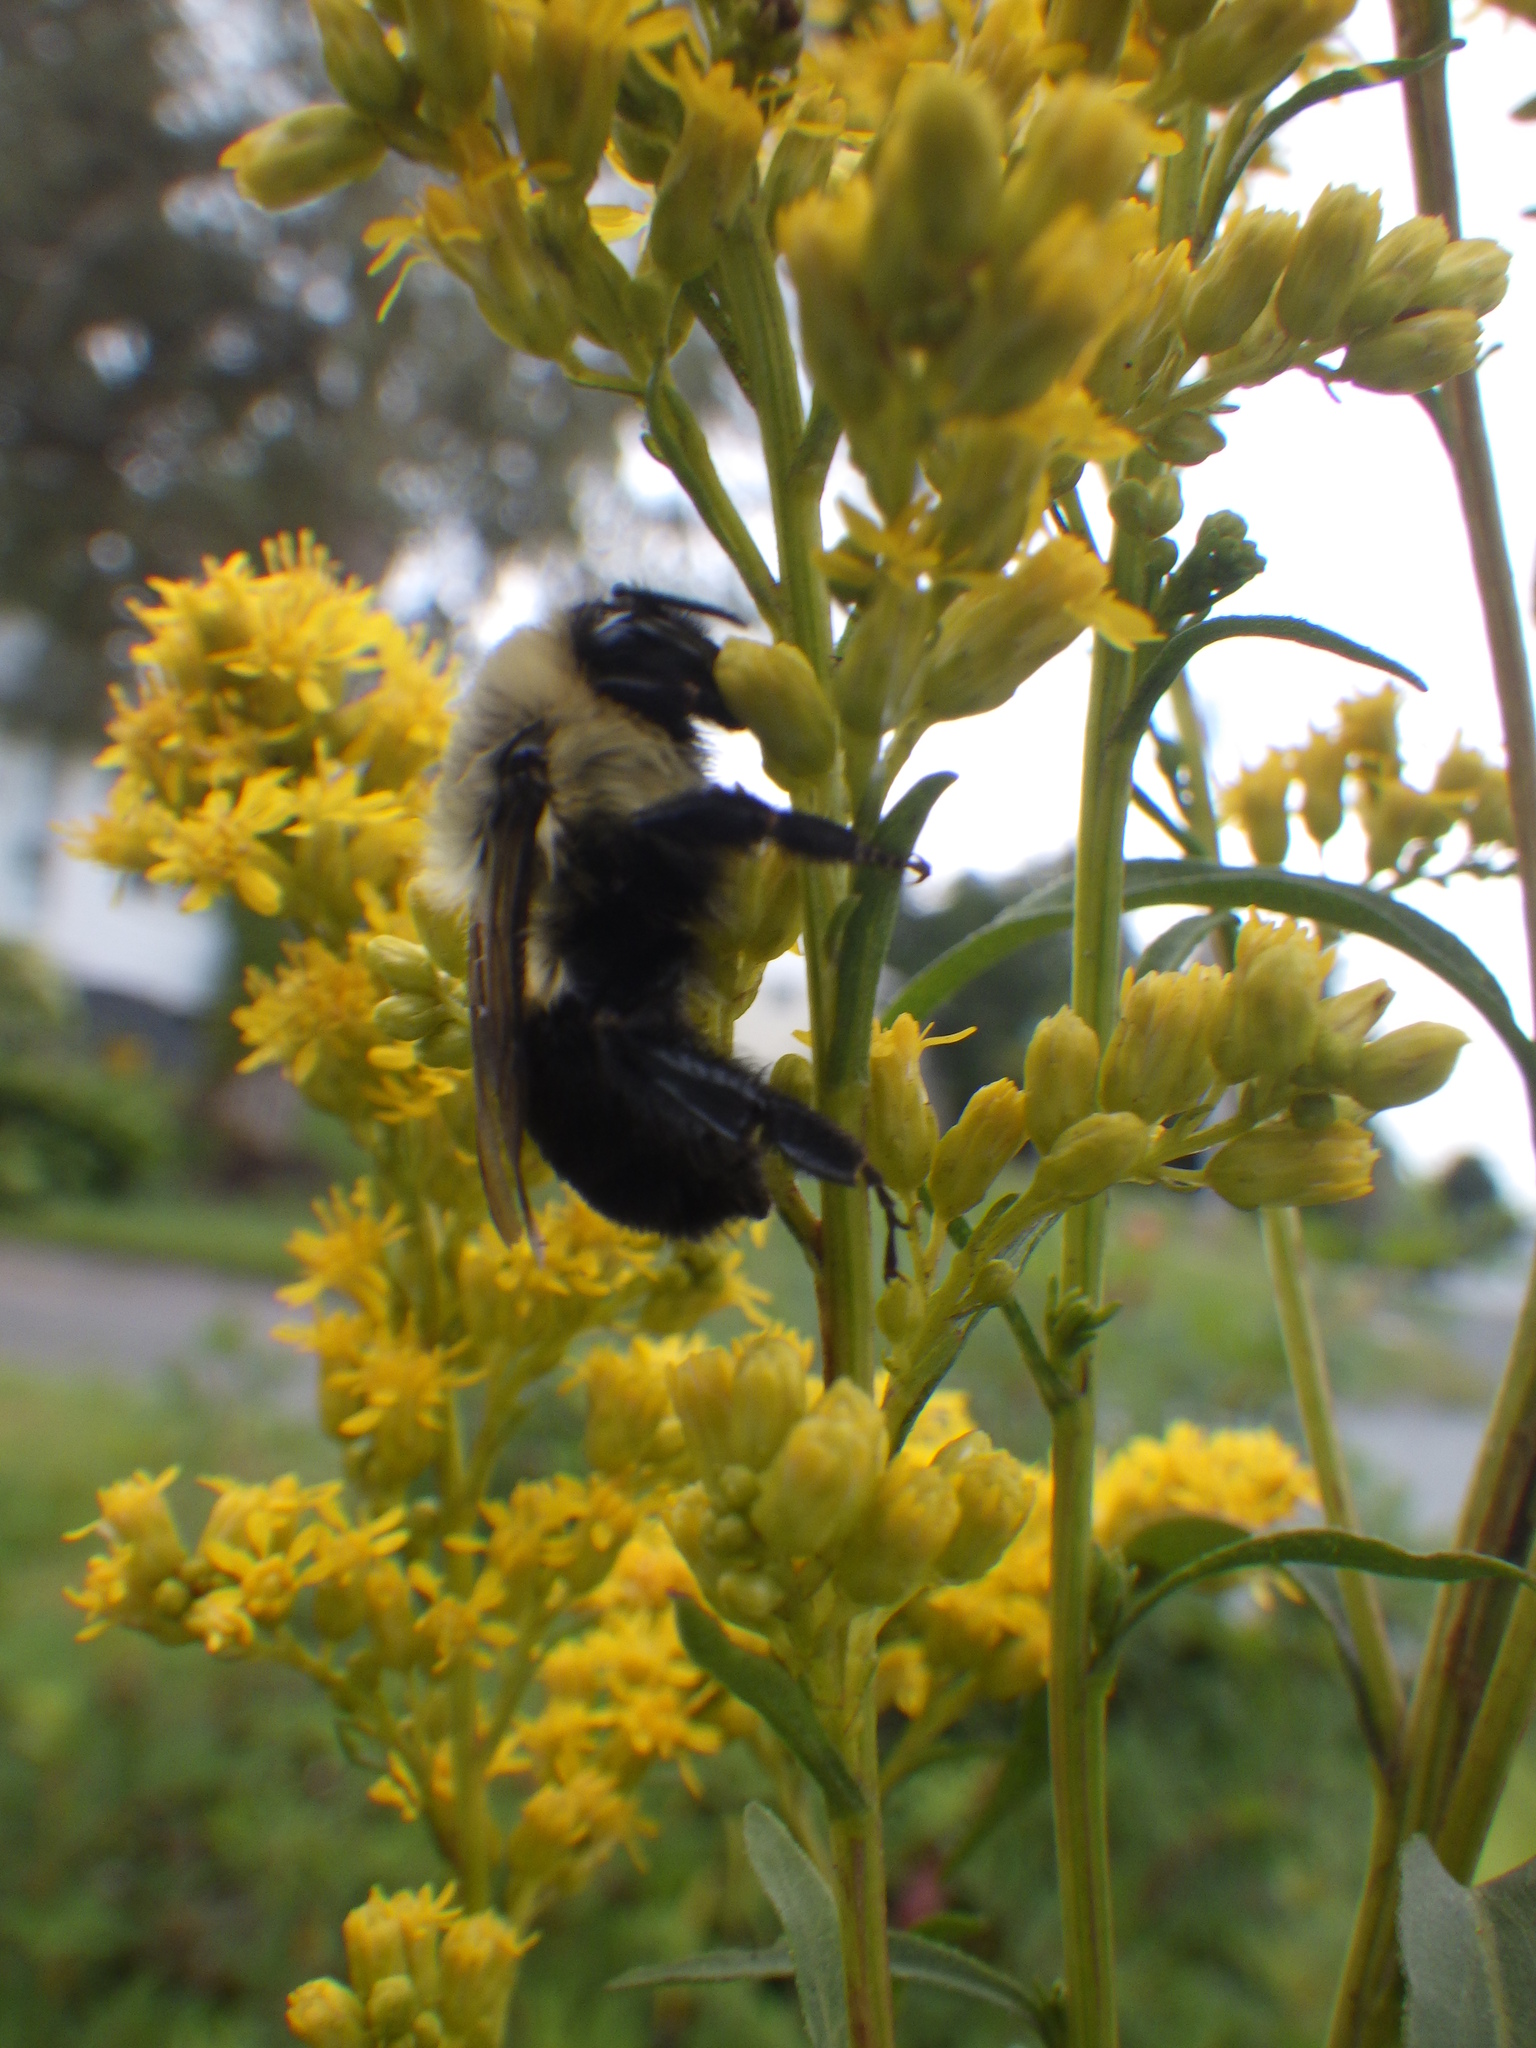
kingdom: Animalia
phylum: Arthropoda
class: Insecta
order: Hymenoptera
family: Apidae
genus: Bombus
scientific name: Bombus impatiens
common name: Common eastern bumble bee
